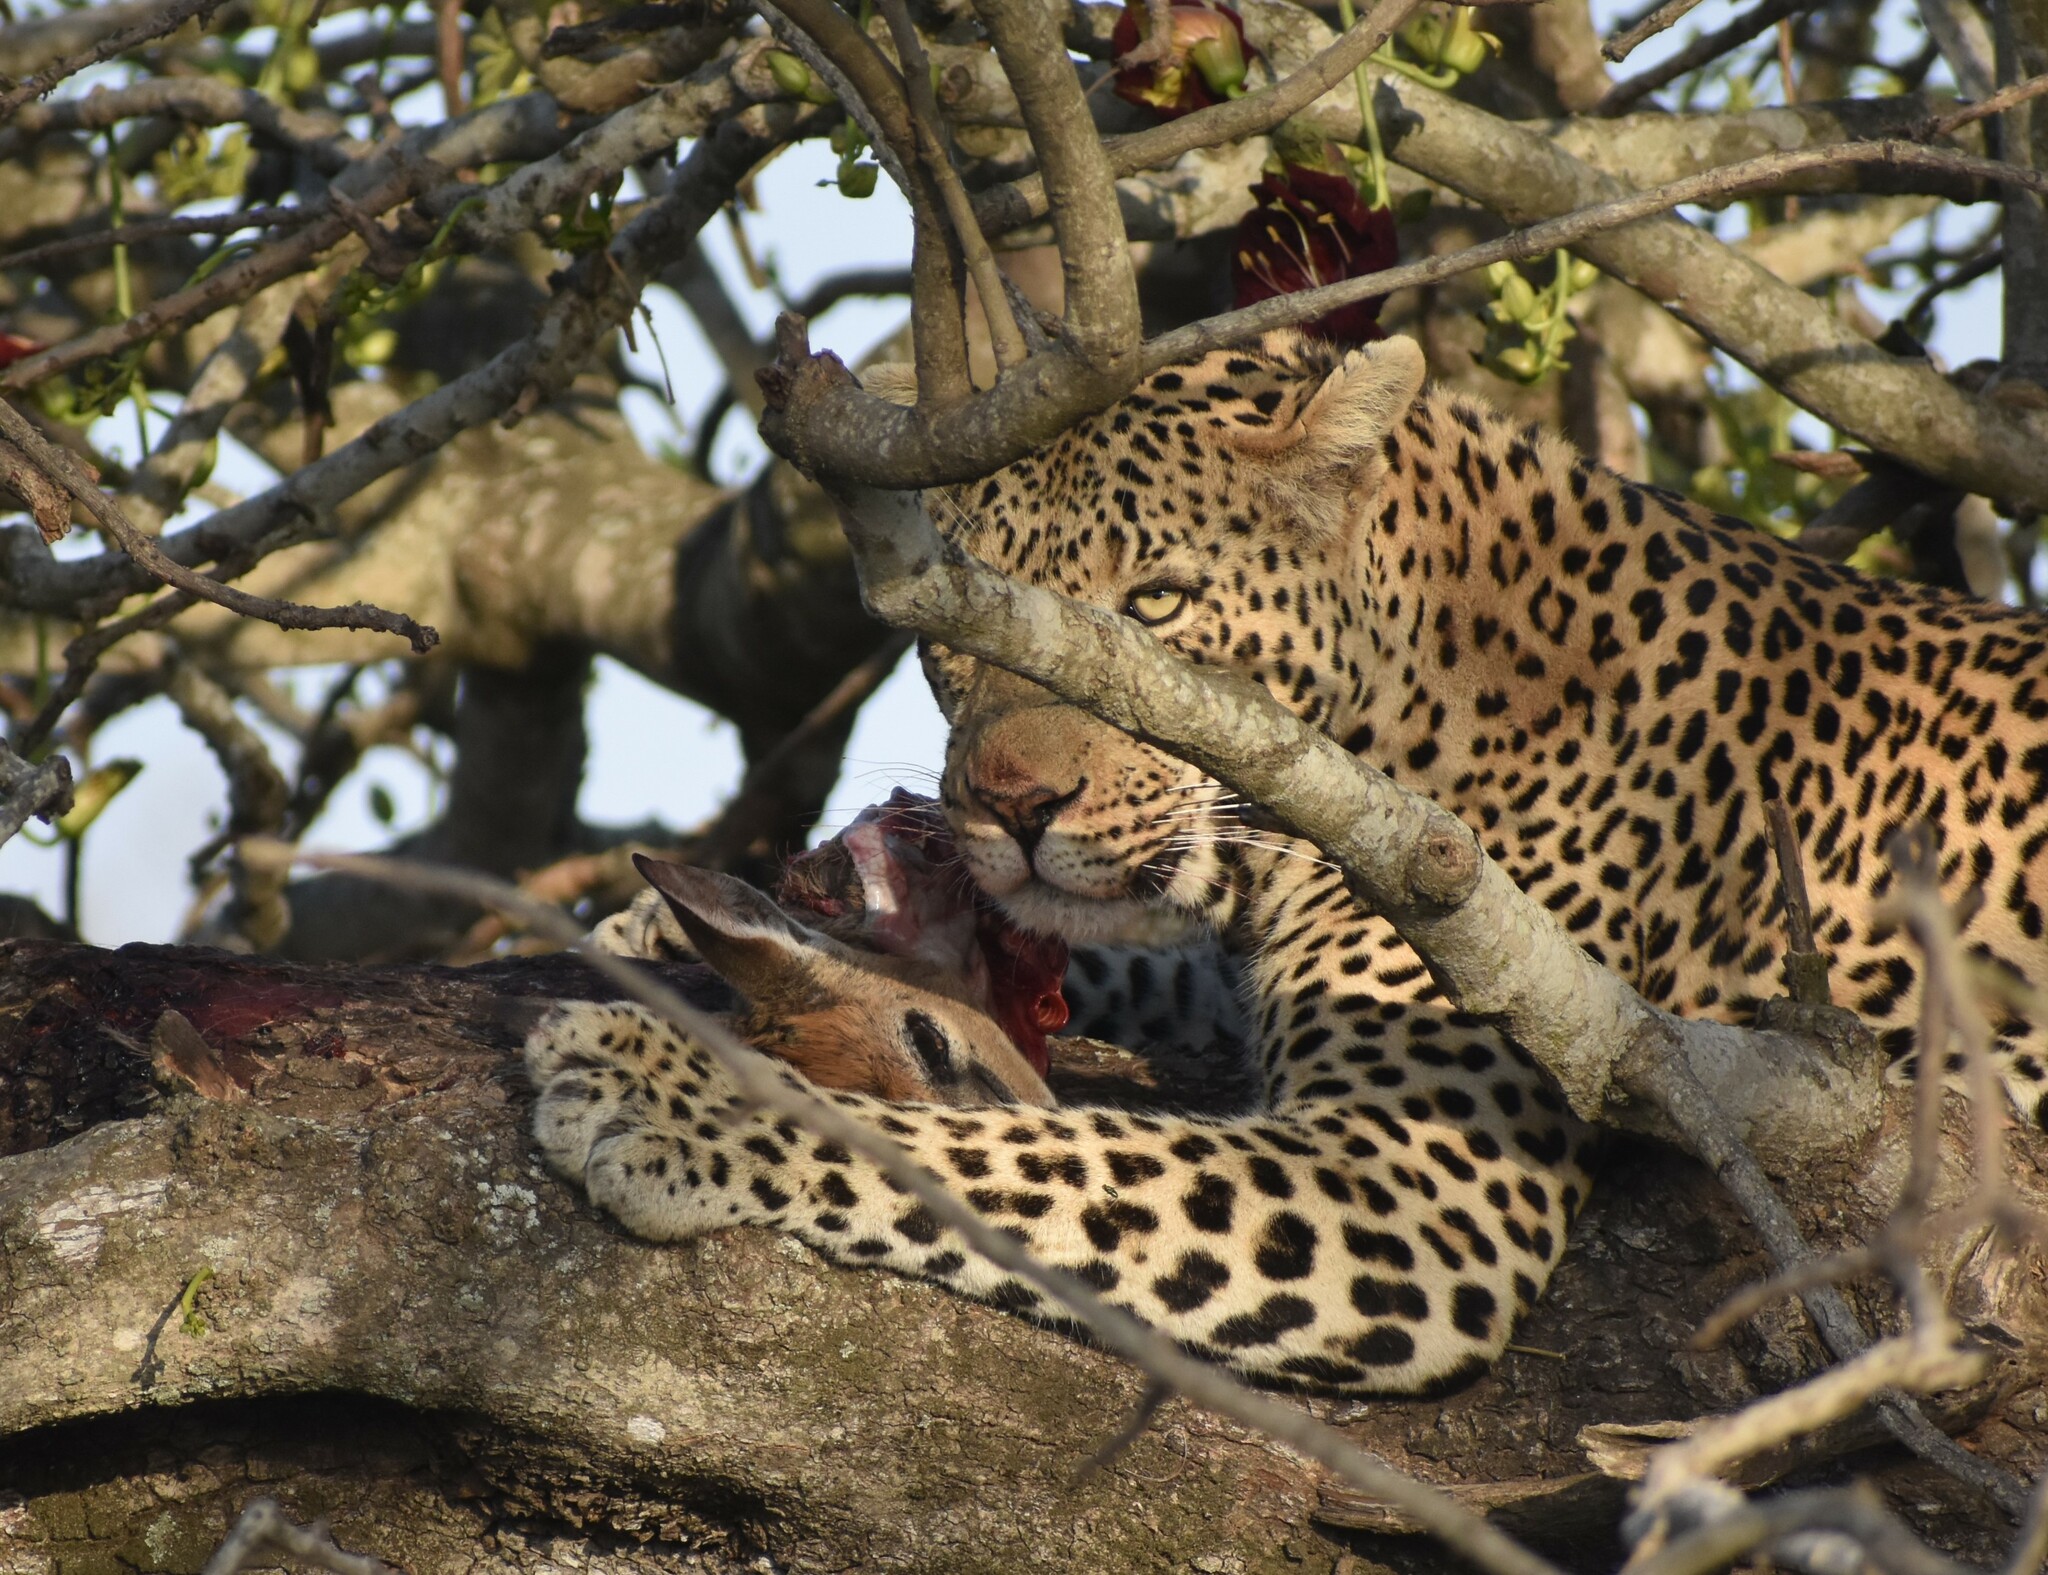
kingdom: Animalia
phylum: Chordata
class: Mammalia
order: Artiodactyla
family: Bovidae
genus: Sylvicapra
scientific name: Sylvicapra grimmia
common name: Bush duiker
